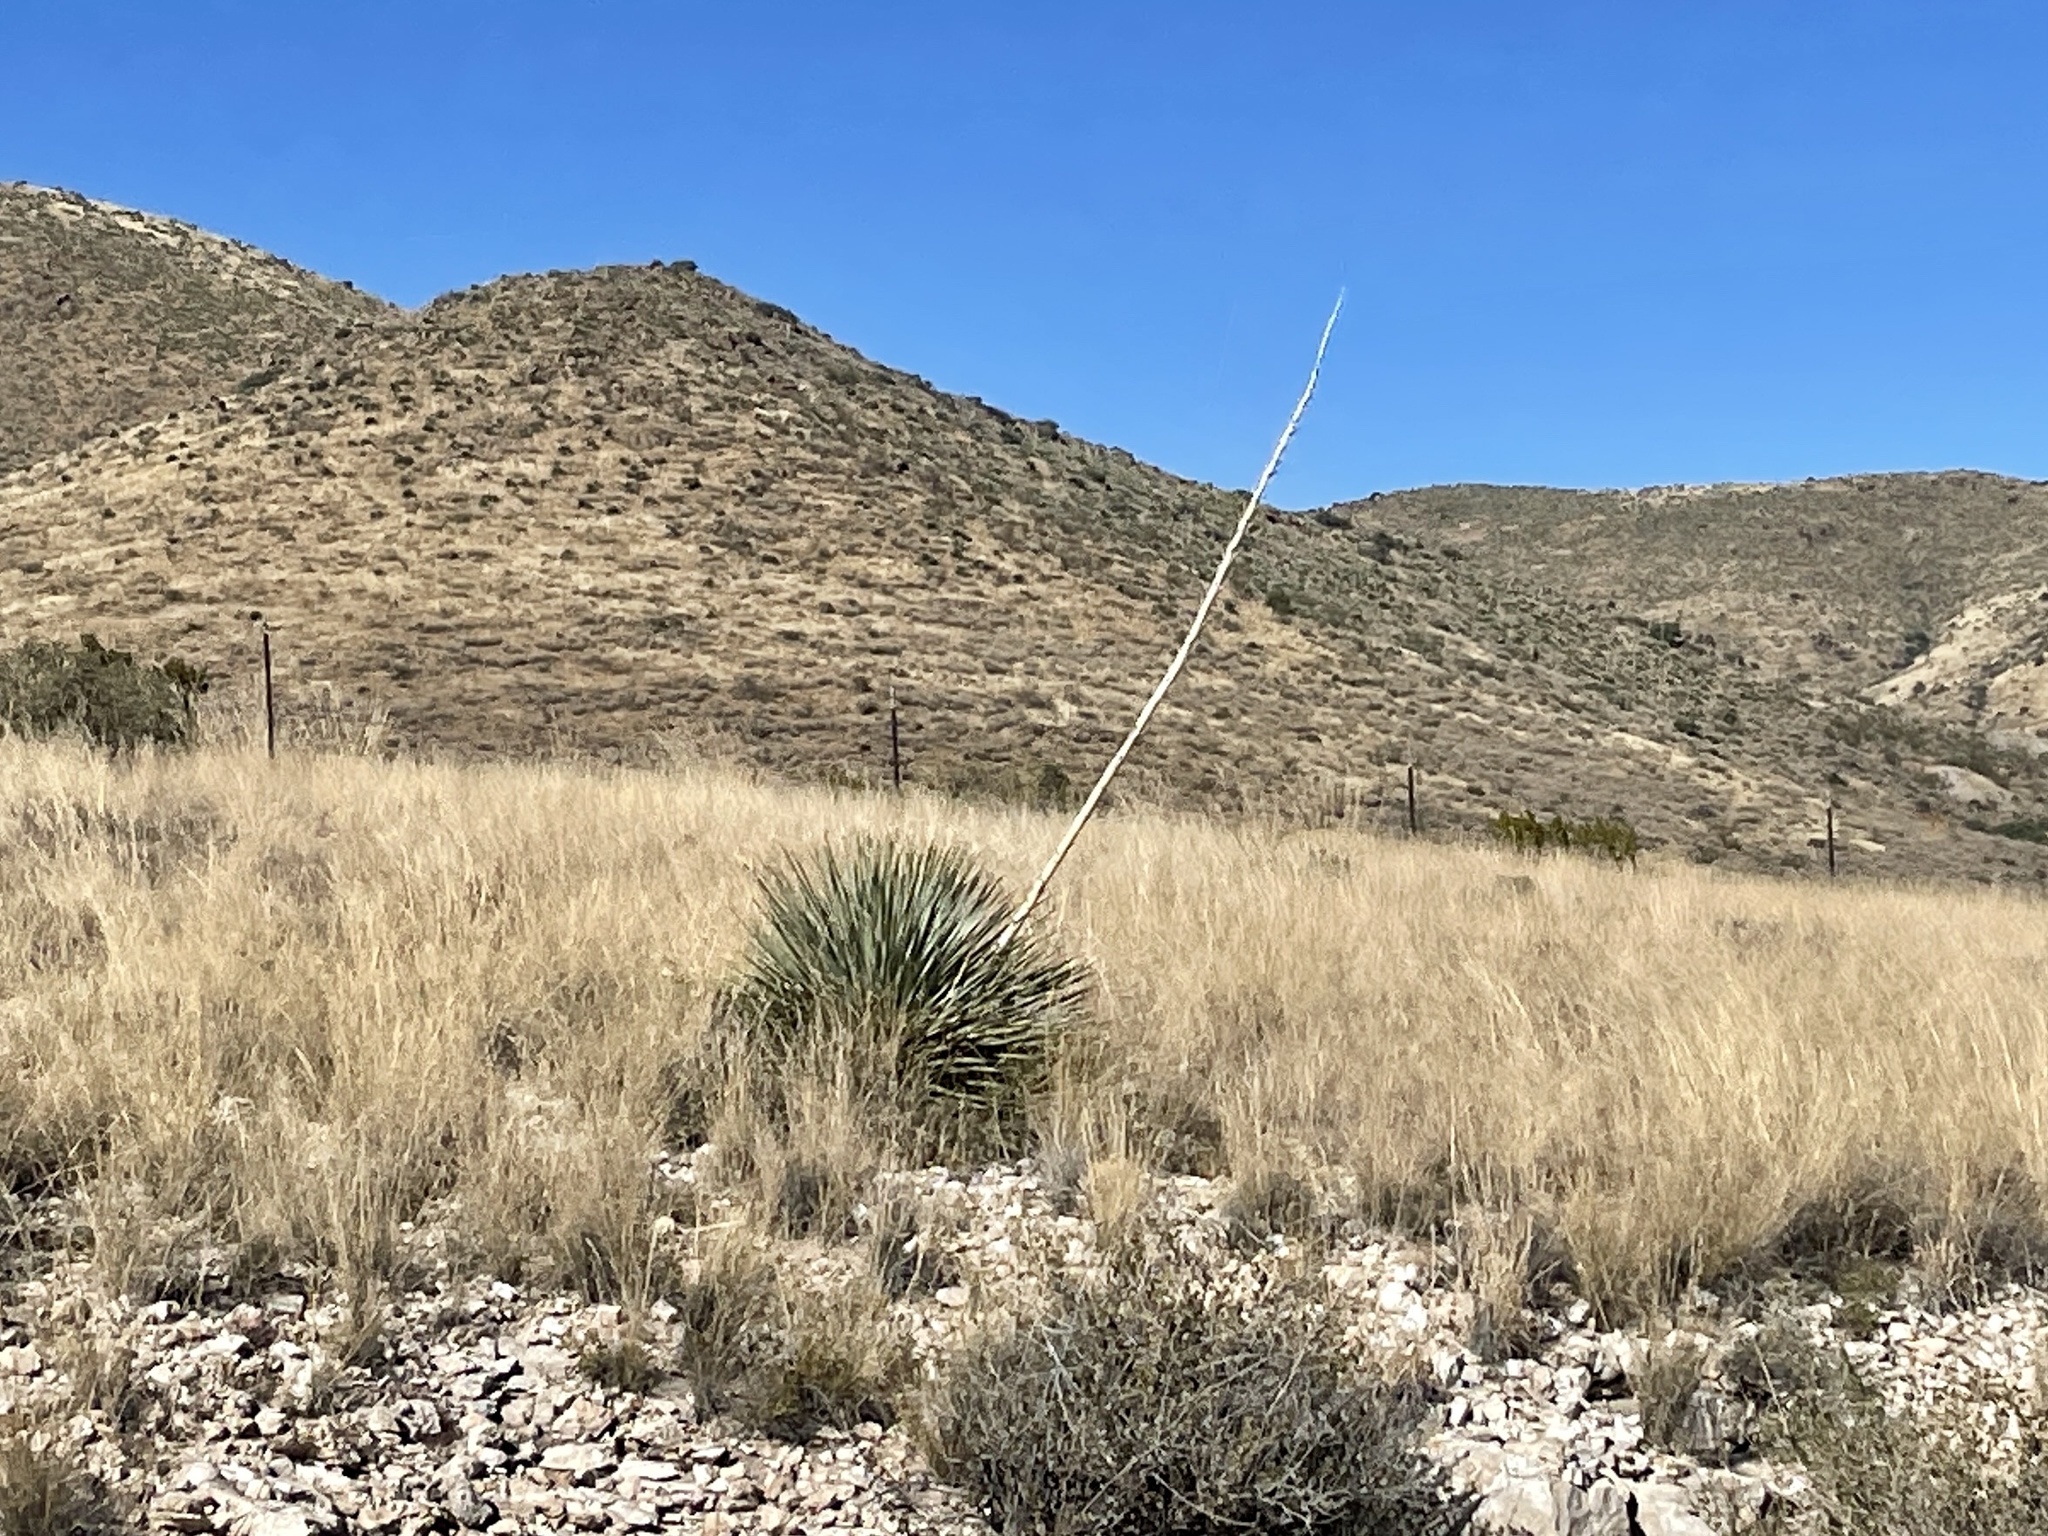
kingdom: Plantae
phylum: Tracheophyta
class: Liliopsida
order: Asparagales
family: Asparagaceae
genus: Dasylirion
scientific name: Dasylirion wheeleri
